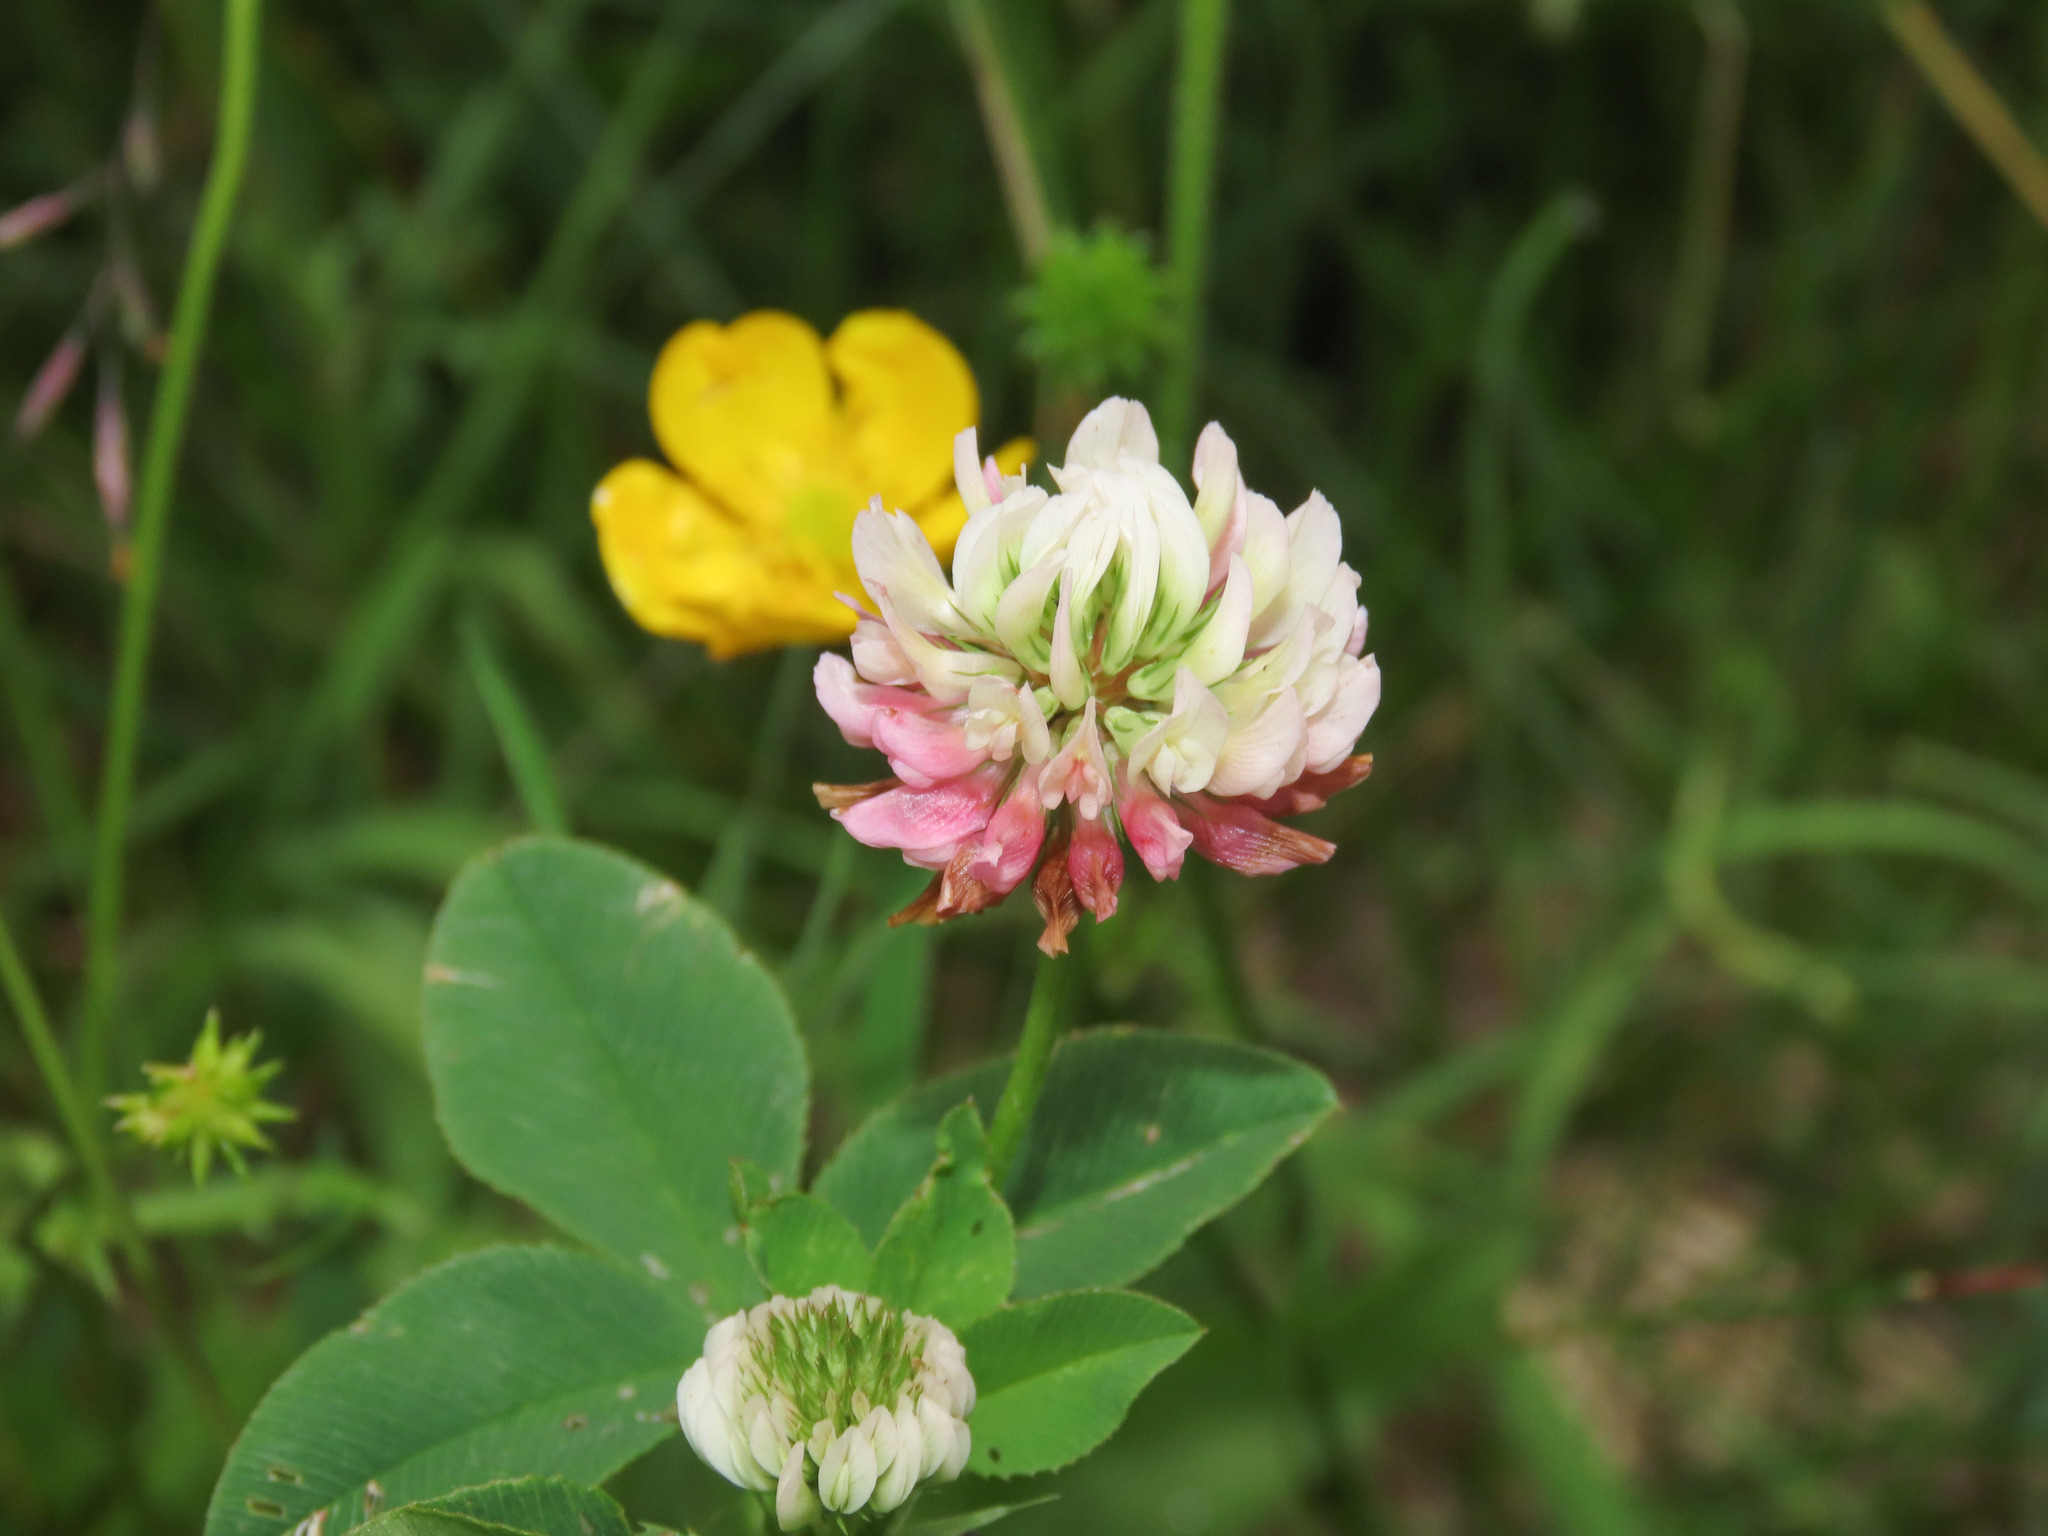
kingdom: Plantae
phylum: Tracheophyta
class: Magnoliopsida
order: Fabales
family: Fabaceae
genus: Trifolium
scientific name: Trifolium hybridum
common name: Alsike clover
